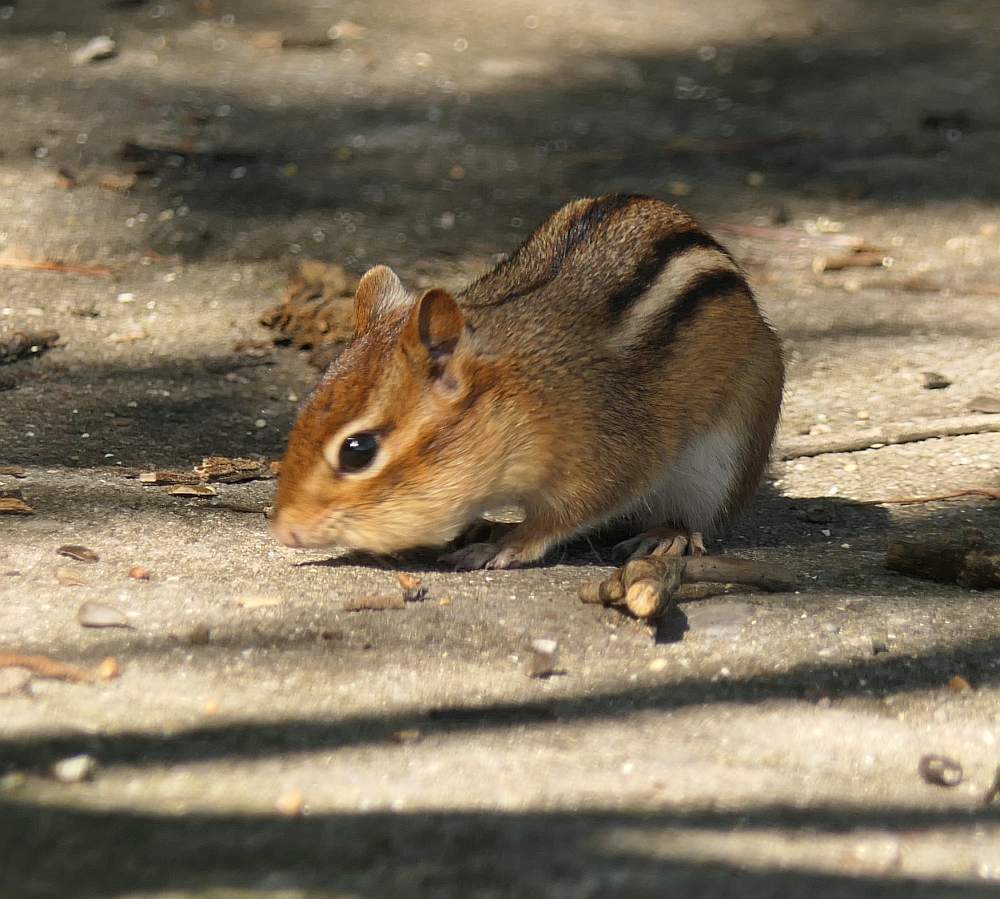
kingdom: Animalia
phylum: Chordata
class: Mammalia
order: Rodentia
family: Sciuridae
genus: Tamias
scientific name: Tamias striatus
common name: Eastern chipmunk
